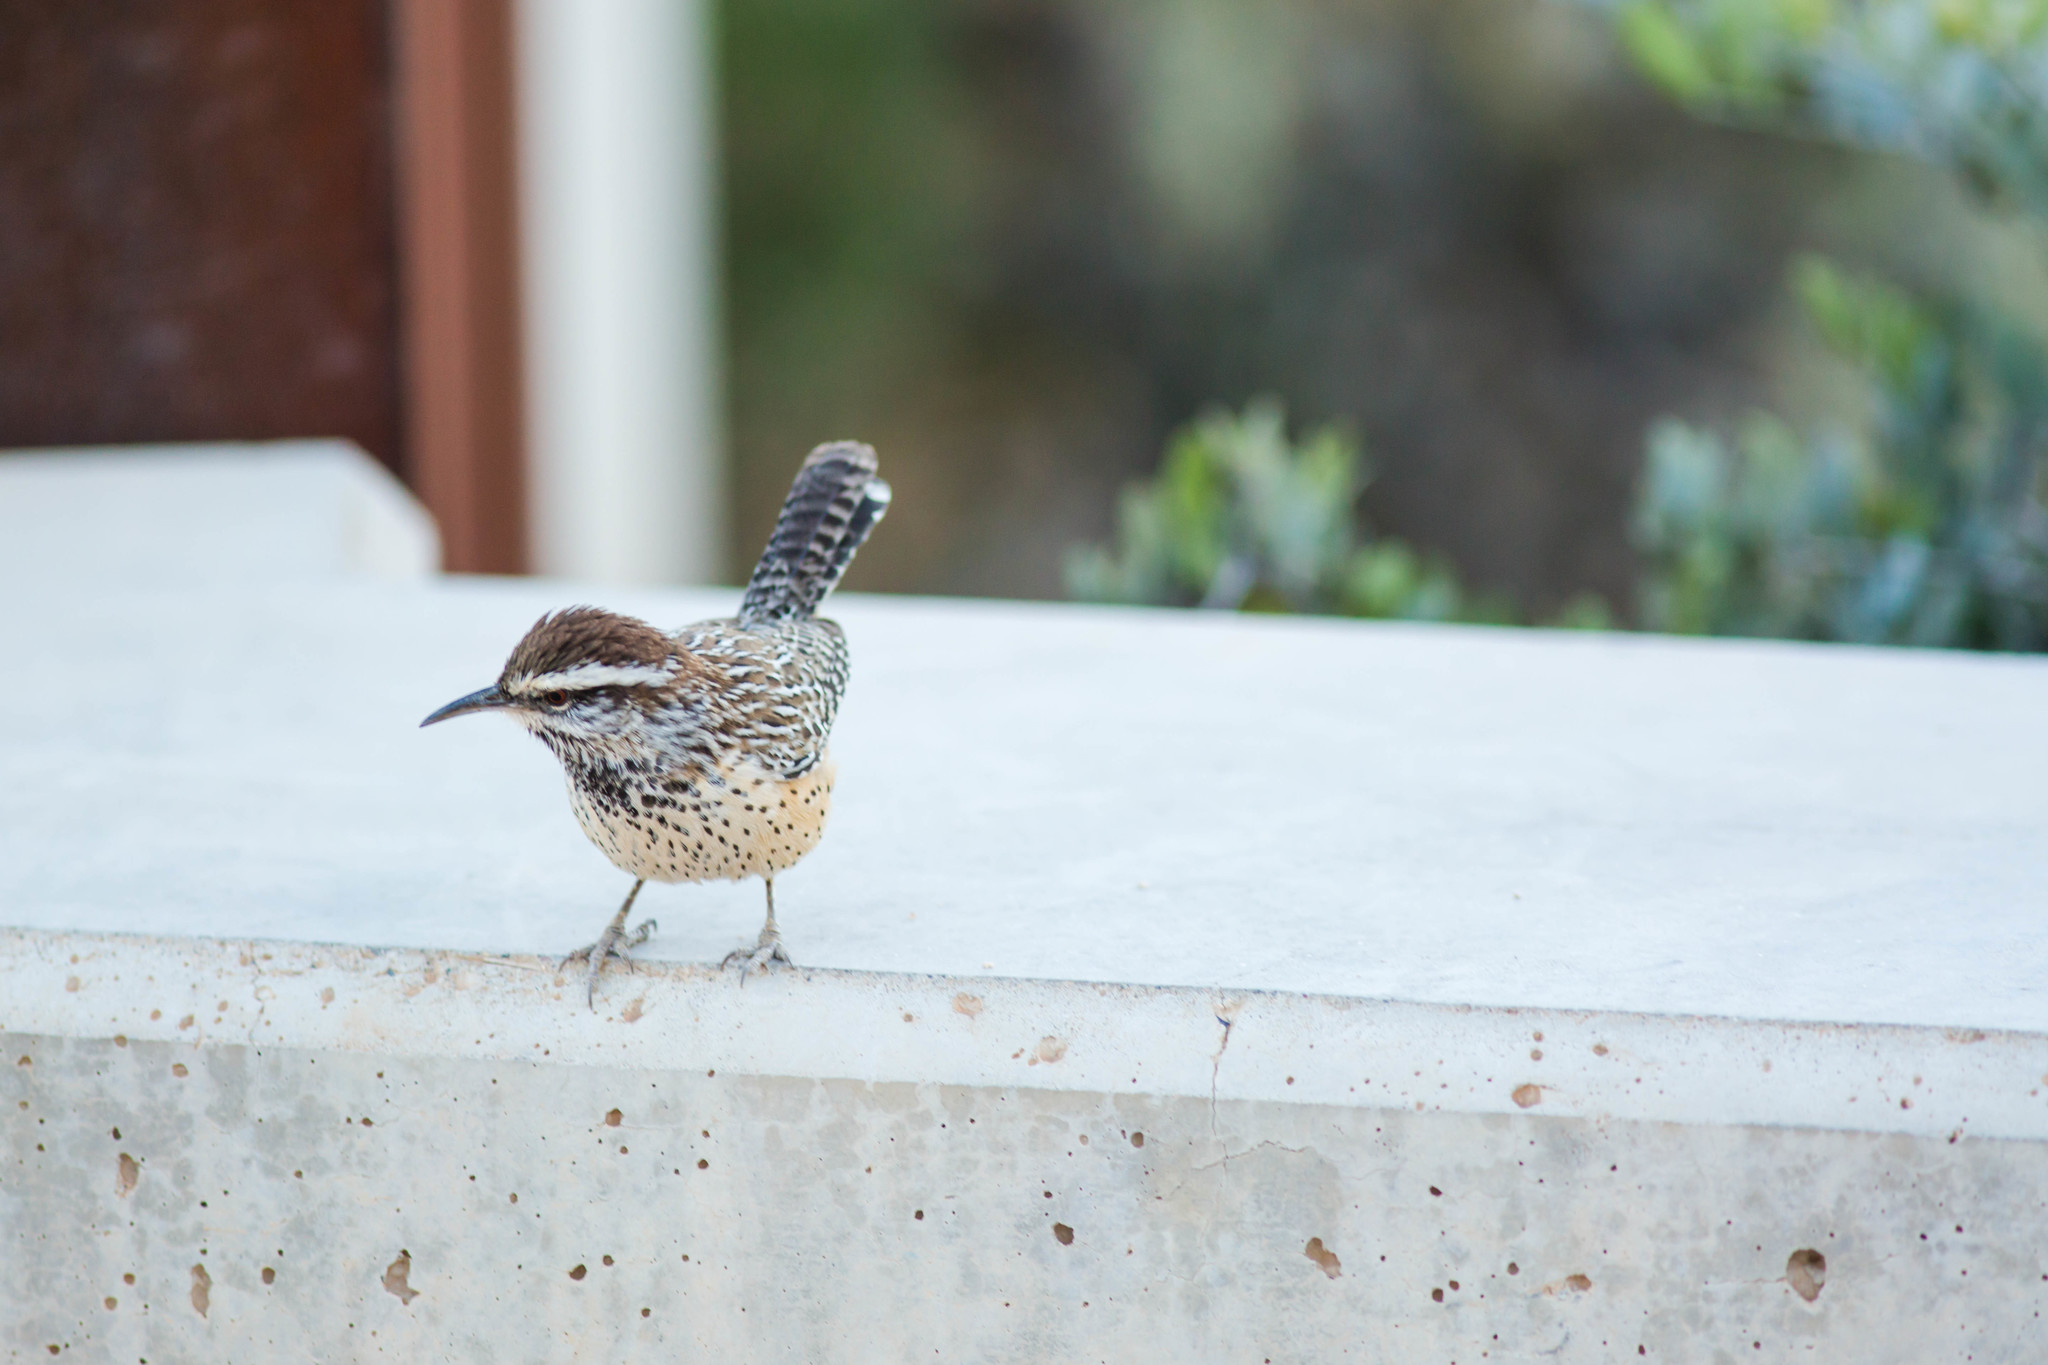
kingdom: Animalia
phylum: Chordata
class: Aves
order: Passeriformes
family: Troglodytidae
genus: Campylorhynchus
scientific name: Campylorhynchus brunneicapillus
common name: Cactus wren
